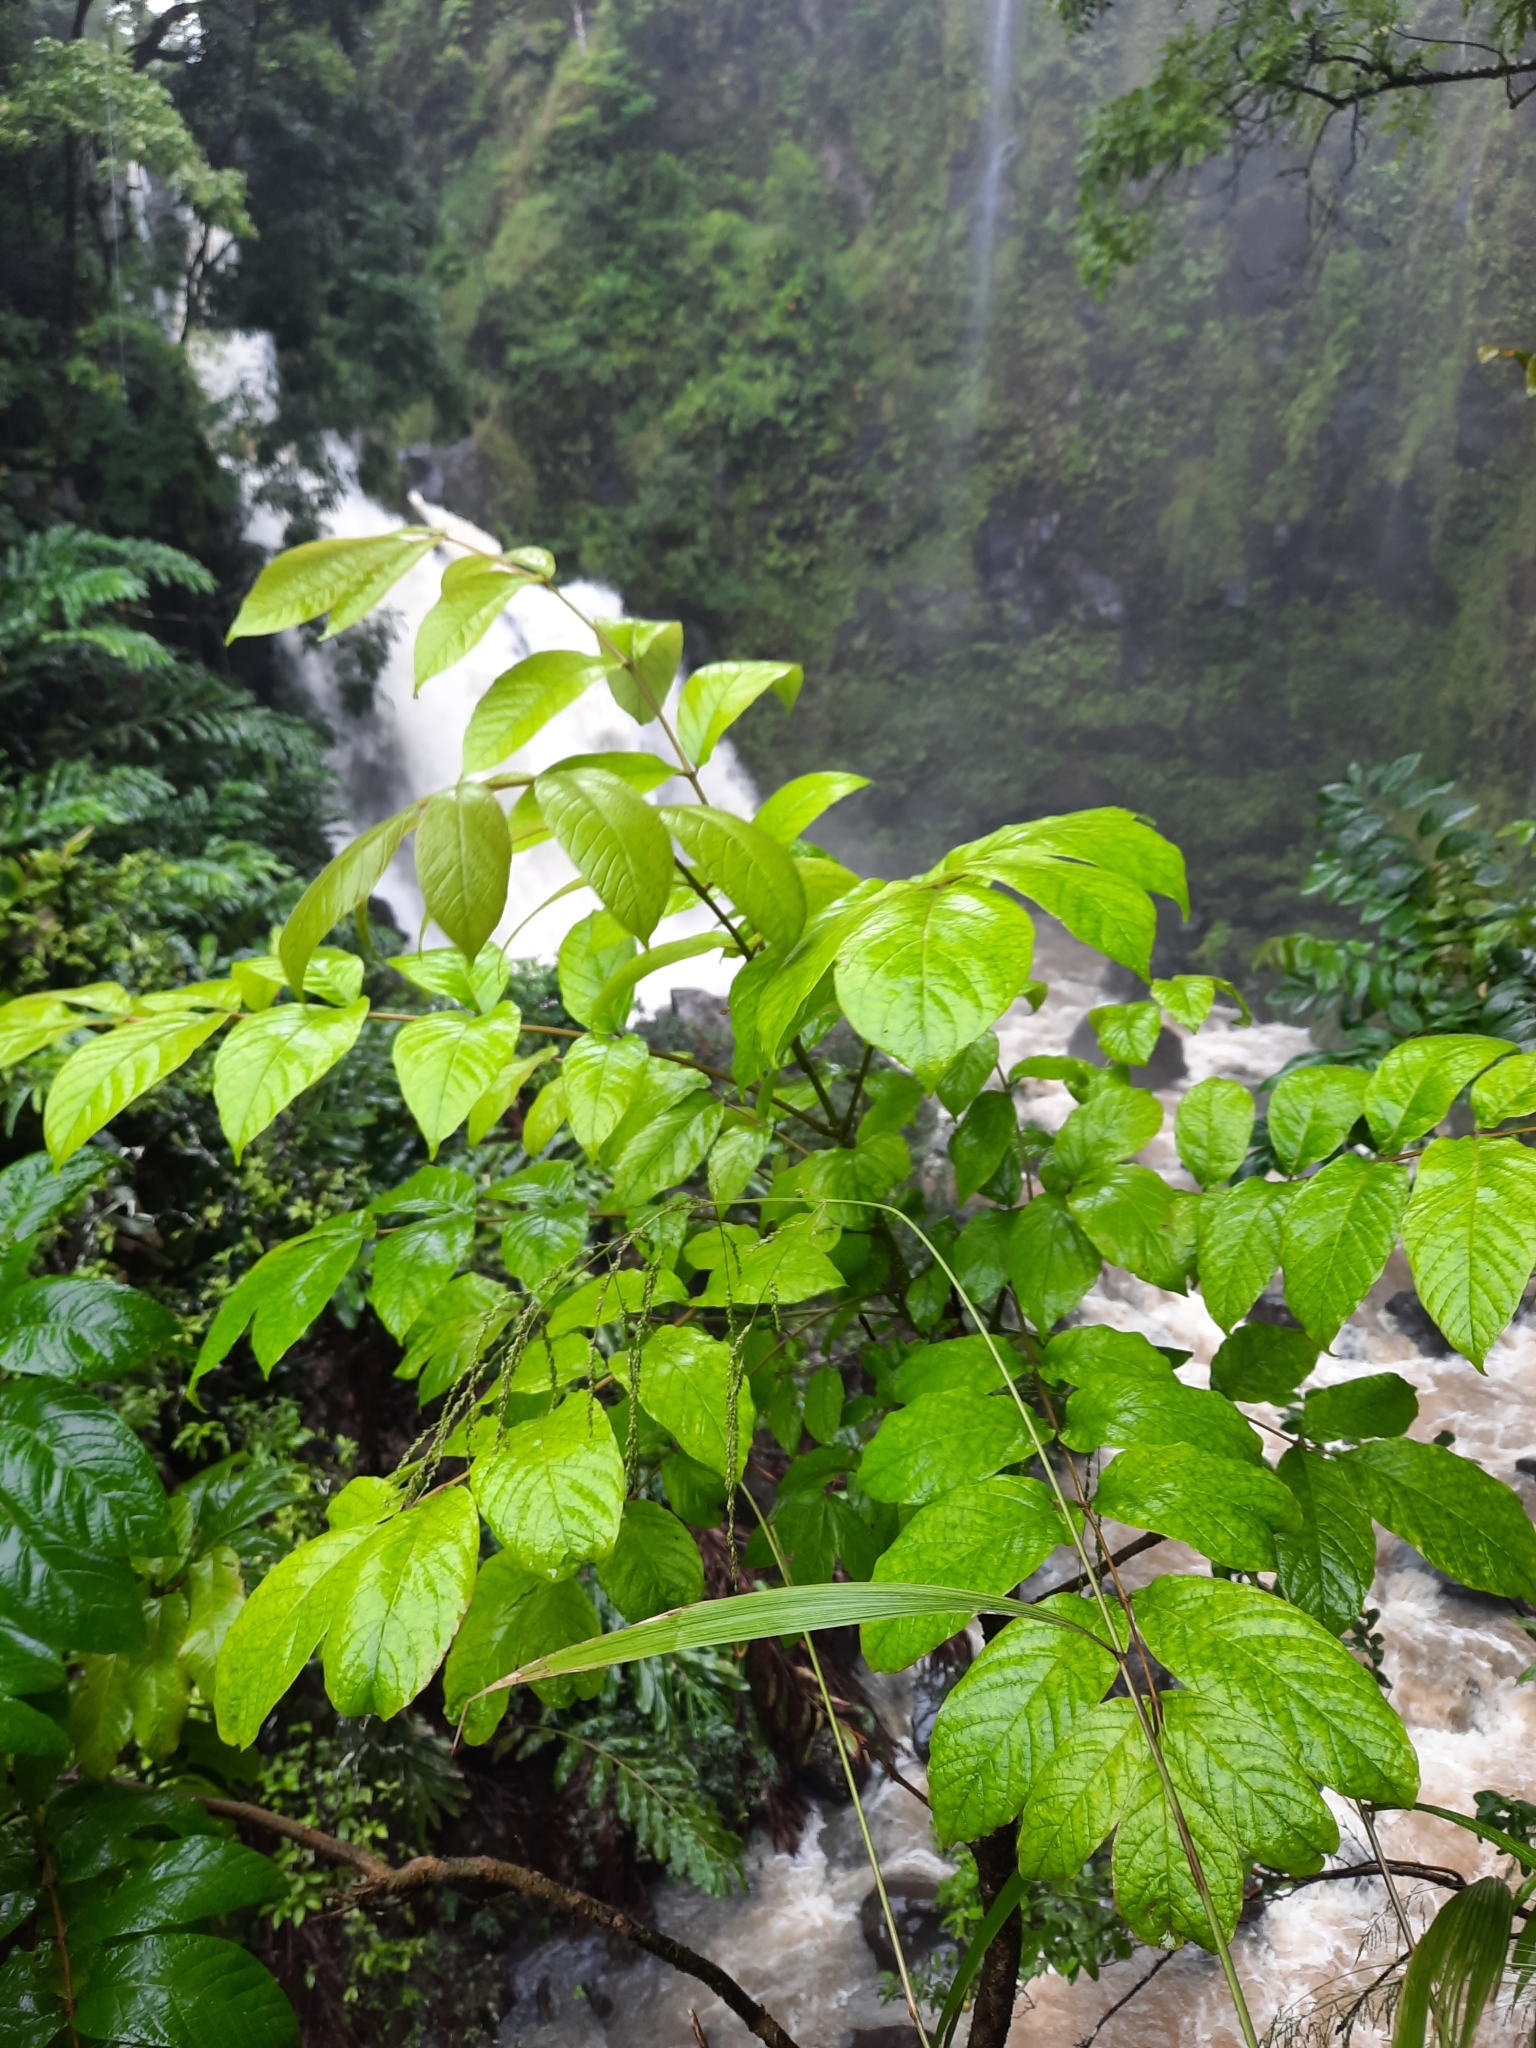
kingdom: Plantae
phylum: Tracheophyta
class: Magnoliopsida
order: Lamiales
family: Bignoniaceae
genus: Spathodea
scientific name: Spathodea campanulata
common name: African tuliptree
